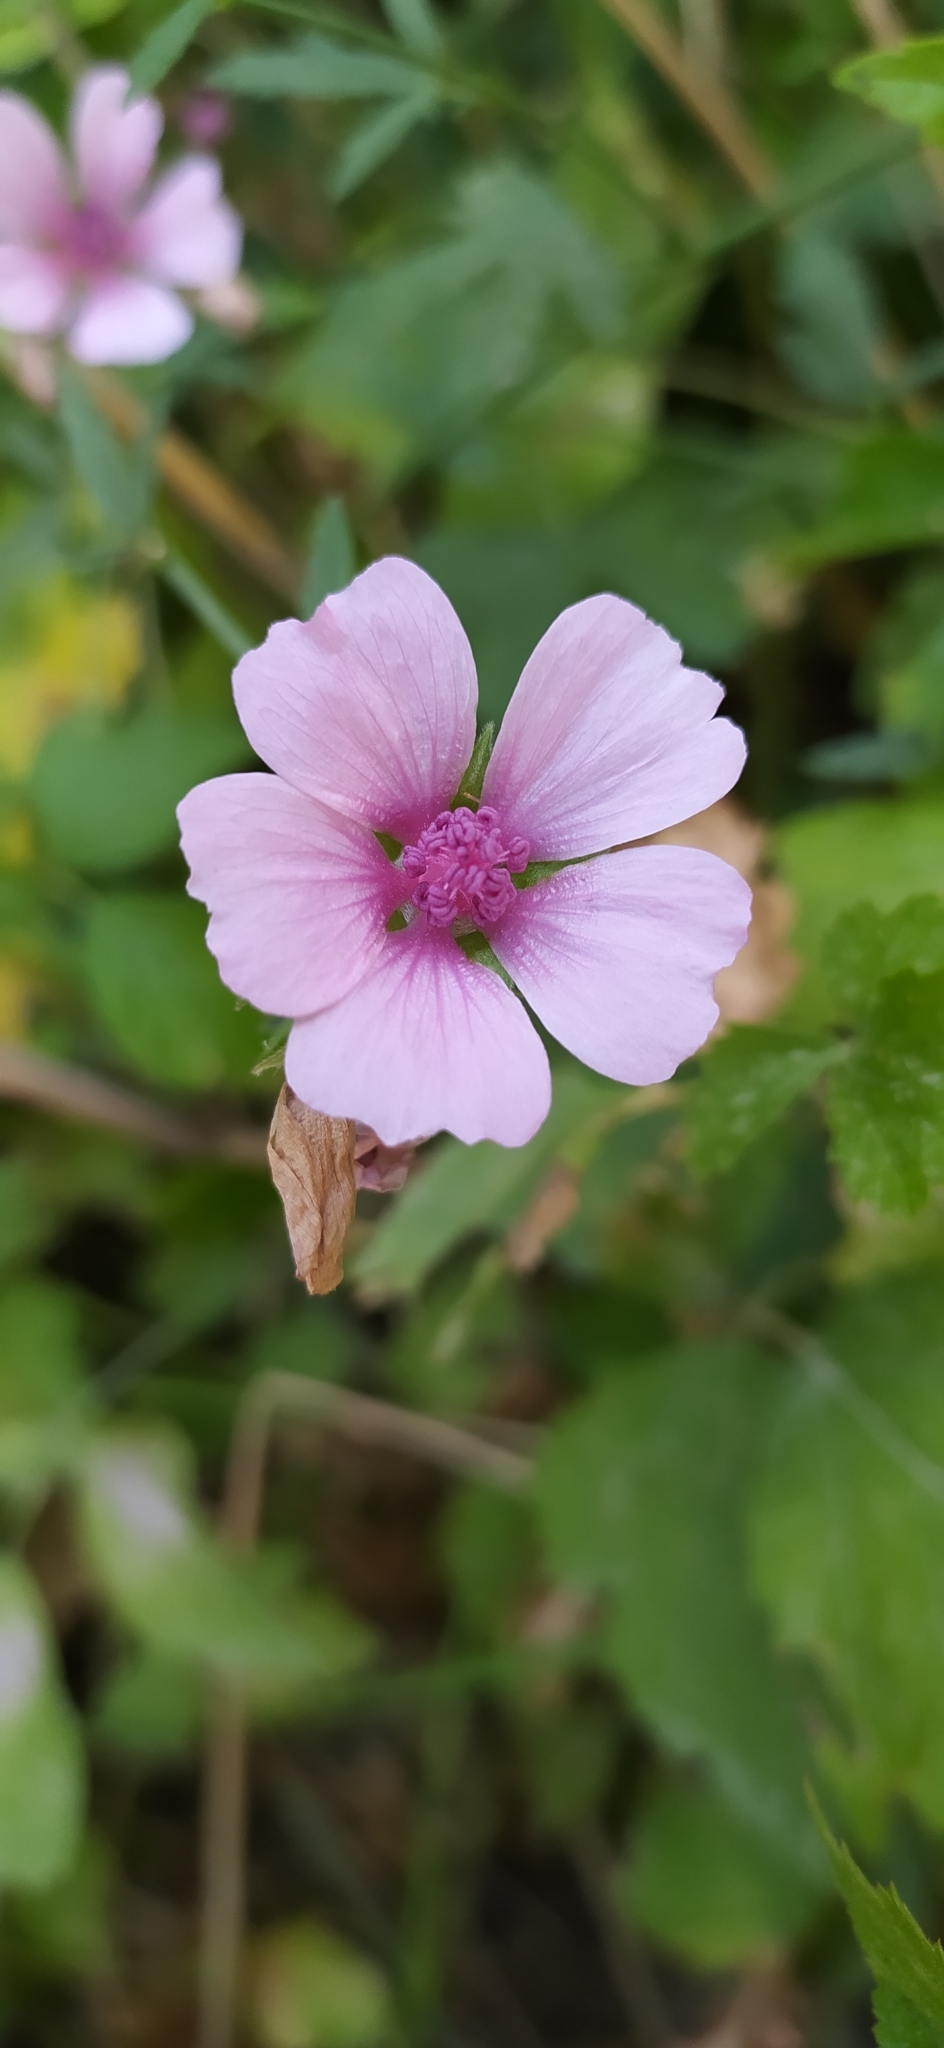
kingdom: Plantae
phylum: Tracheophyta
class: Magnoliopsida
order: Malvales
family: Malvaceae
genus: Althaea
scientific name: Althaea cannabina
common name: Palm-leaf marshmallow
